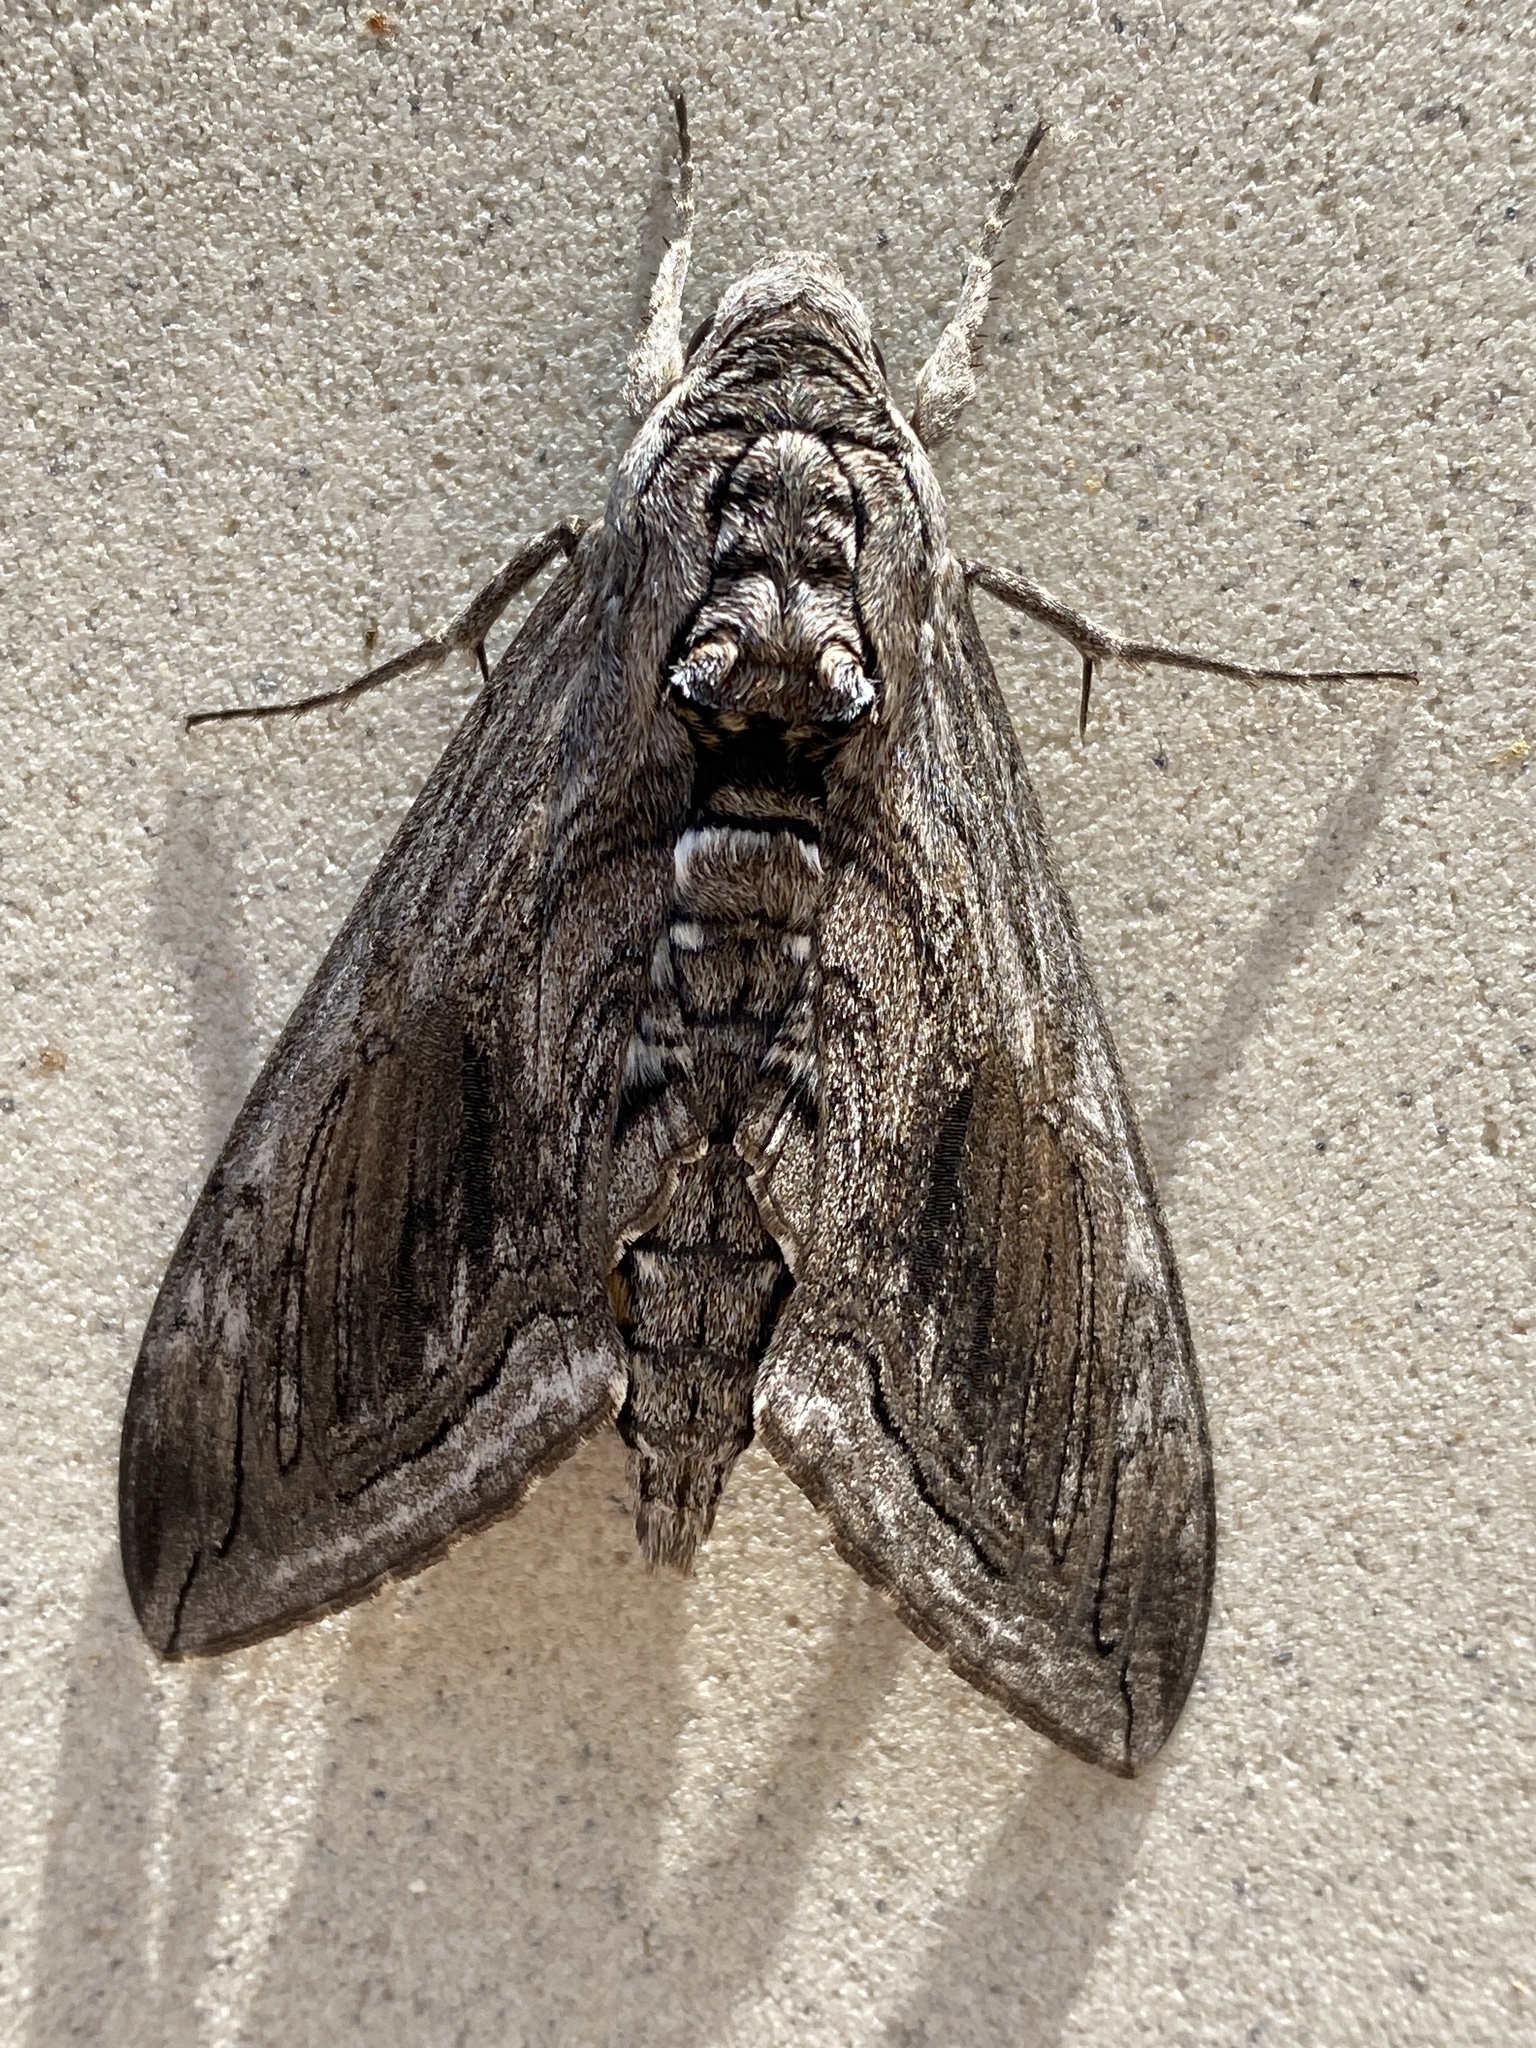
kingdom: Animalia
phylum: Arthropoda
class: Insecta
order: Lepidoptera
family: Sphingidae
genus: Manduca
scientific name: Manduca quinquemaculatus
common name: Five-spotted hawk-moth
